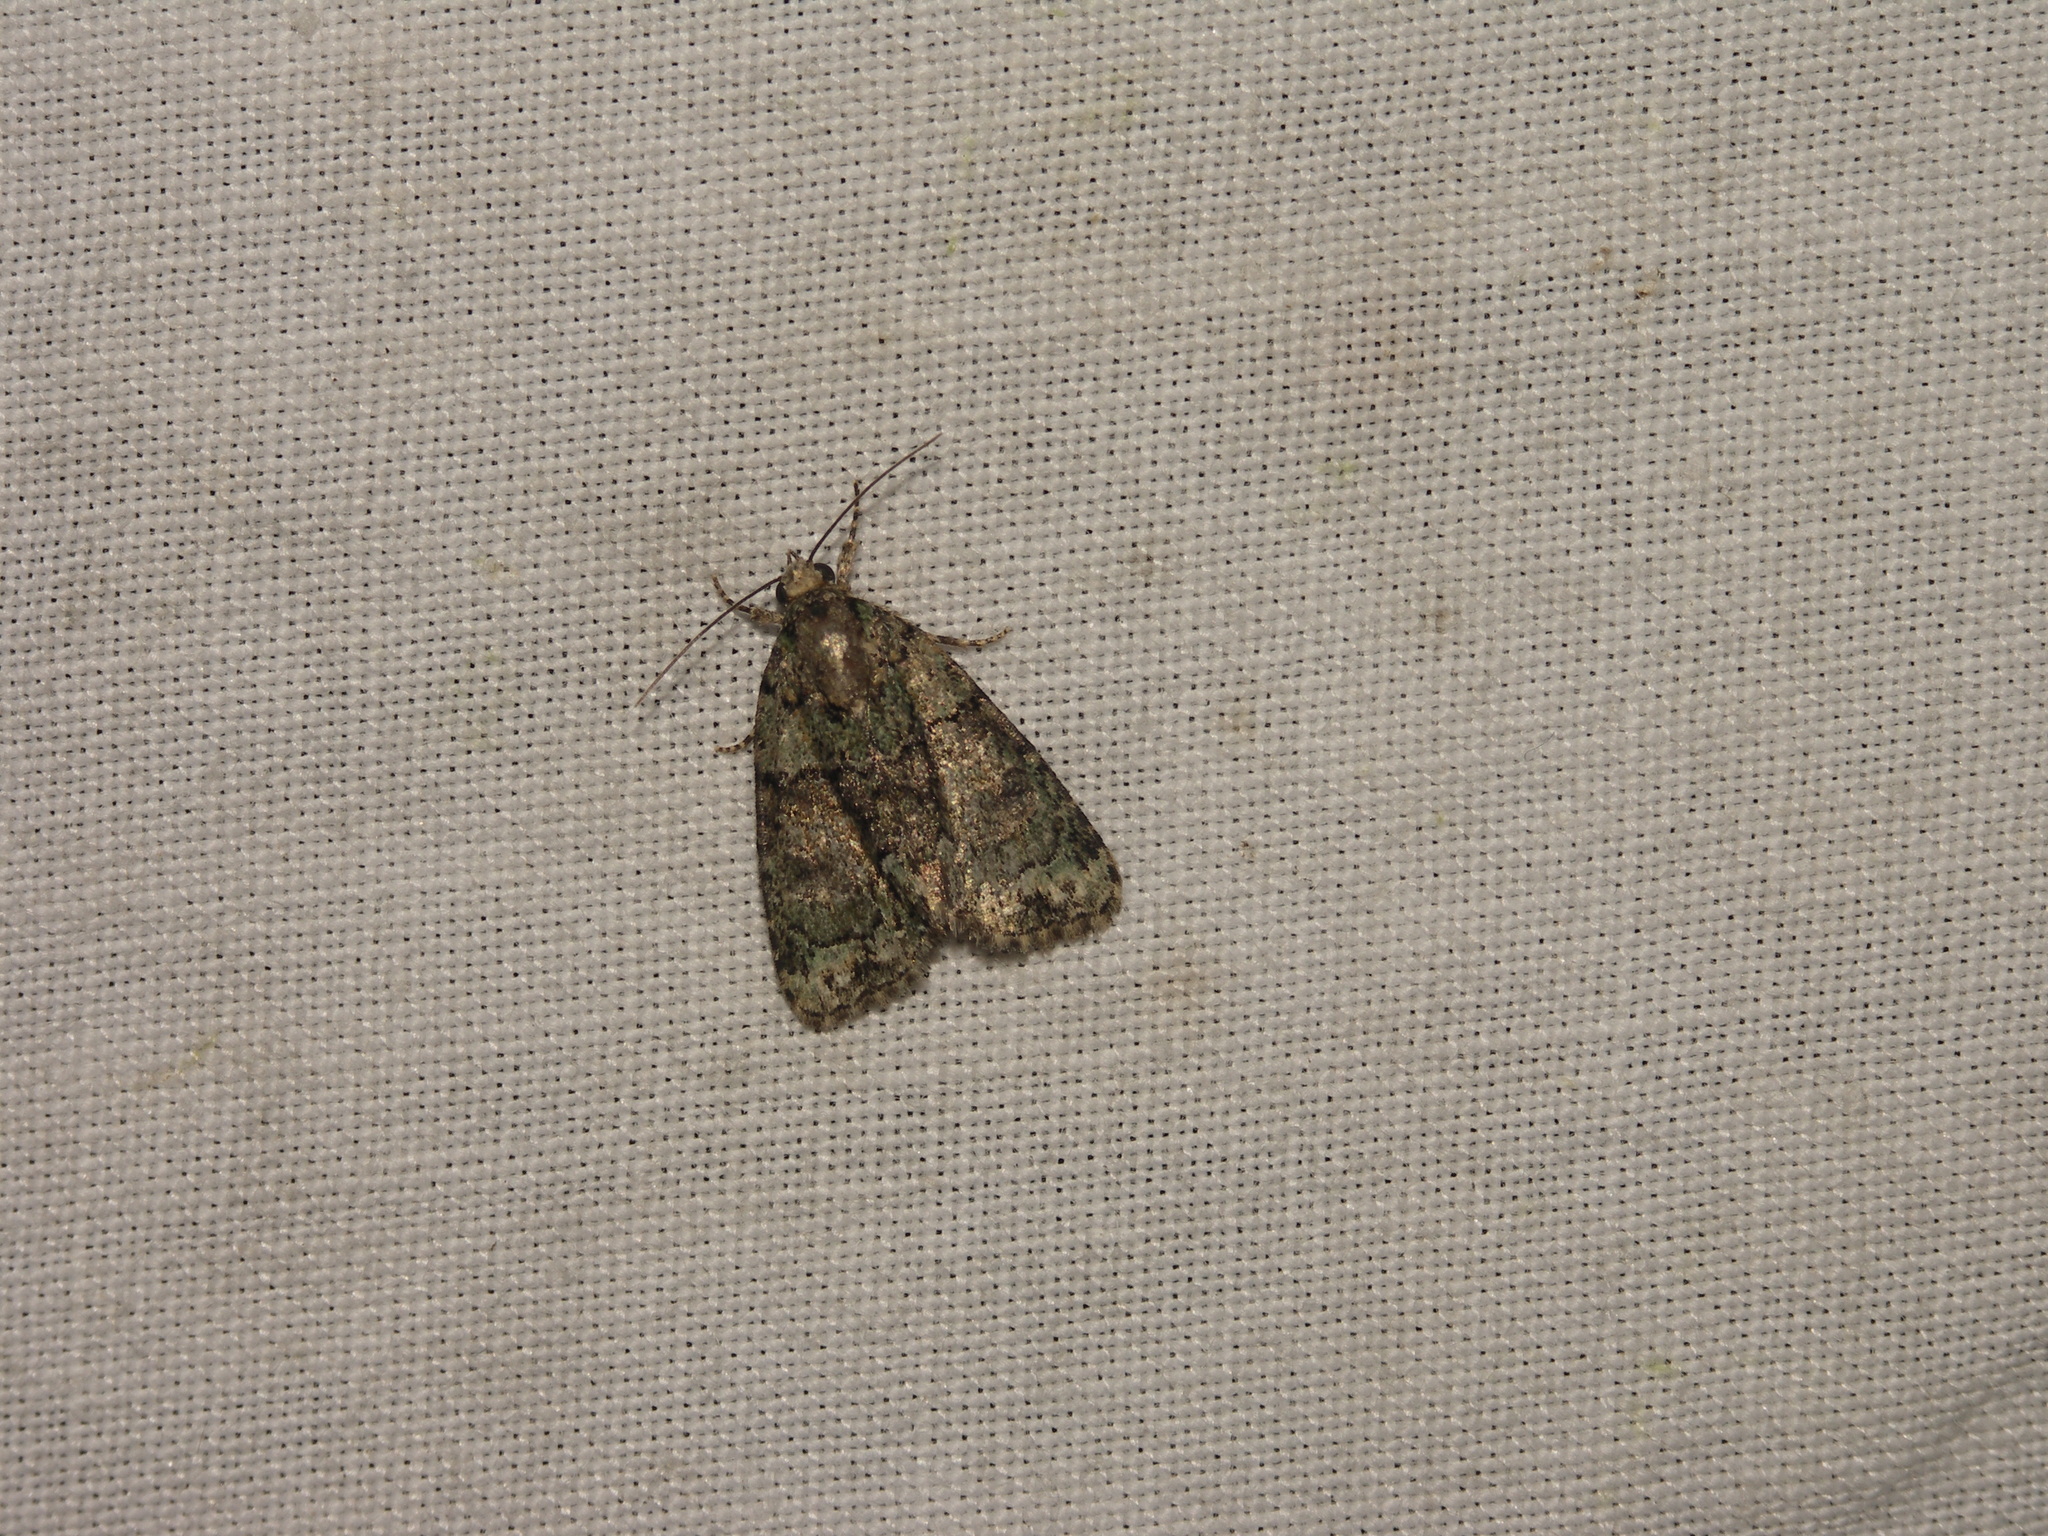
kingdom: Animalia
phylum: Arthropoda
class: Insecta
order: Lepidoptera
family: Noctuidae
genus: Cryphia
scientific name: Cryphia algae
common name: Tree-lichen beauty
